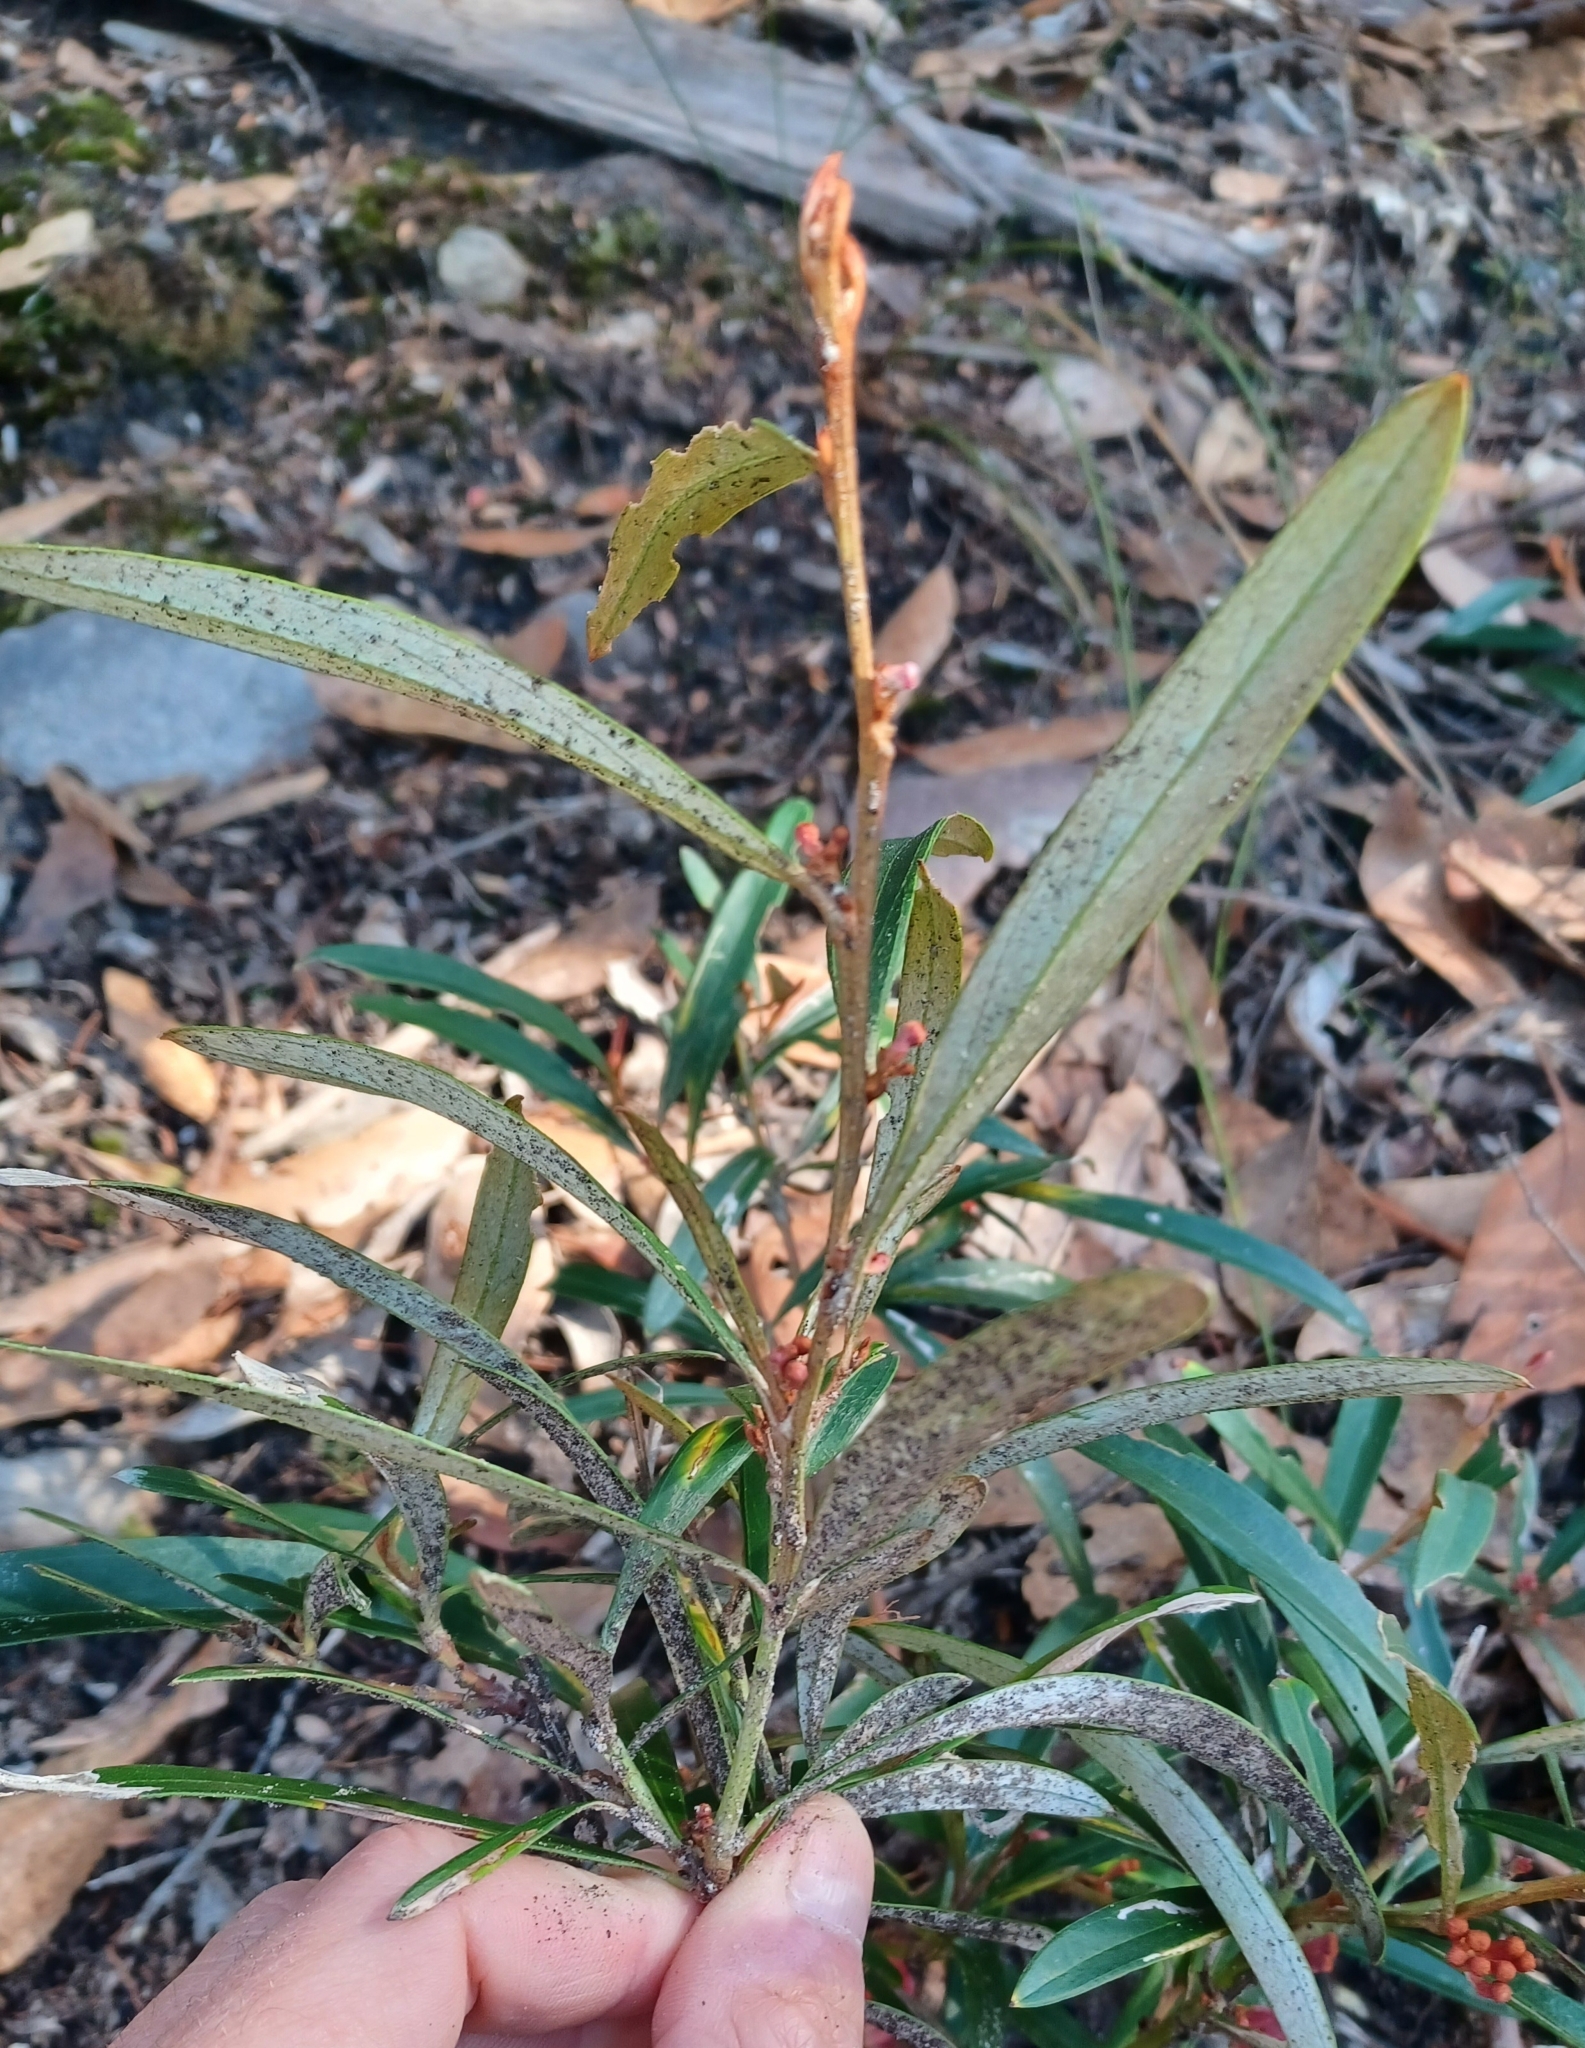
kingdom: Plantae
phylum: Tracheophyta
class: Magnoliopsida
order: Proteales
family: Proteaceae
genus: Grevillea
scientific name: Grevillea dimorpha
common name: Flame grevillea
